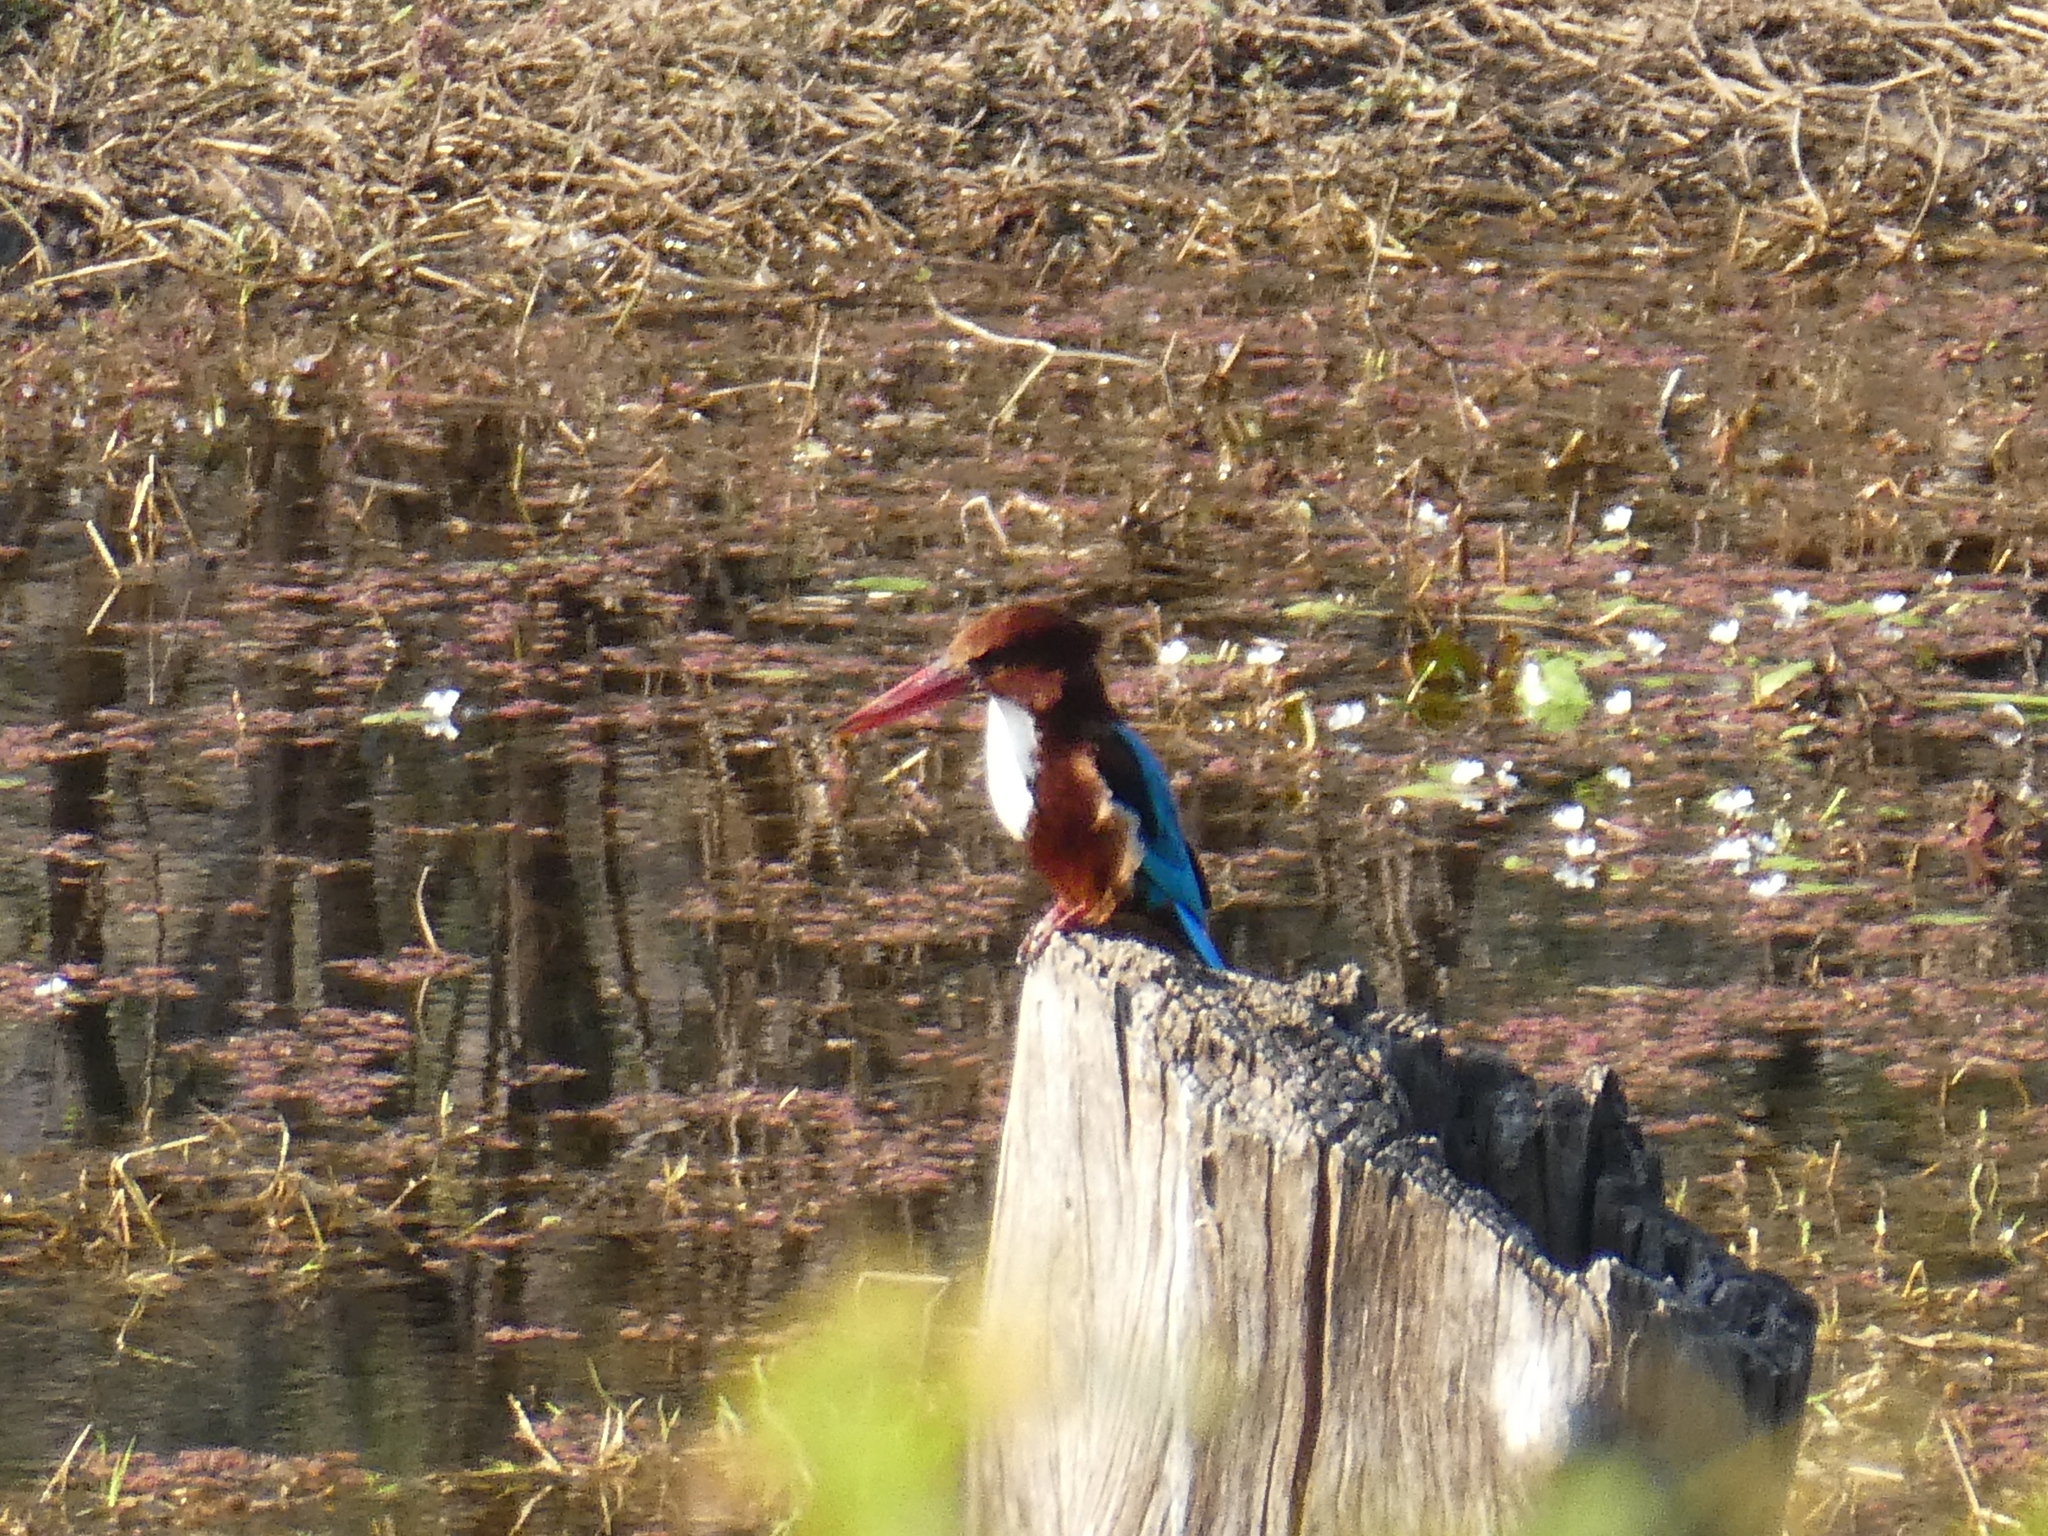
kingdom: Animalia
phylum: Chordata
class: Aves
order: Coraciiformes
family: Alcedinidae
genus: Halcyon
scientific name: Halcyon smyrnensis
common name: White-throated kingfisher
